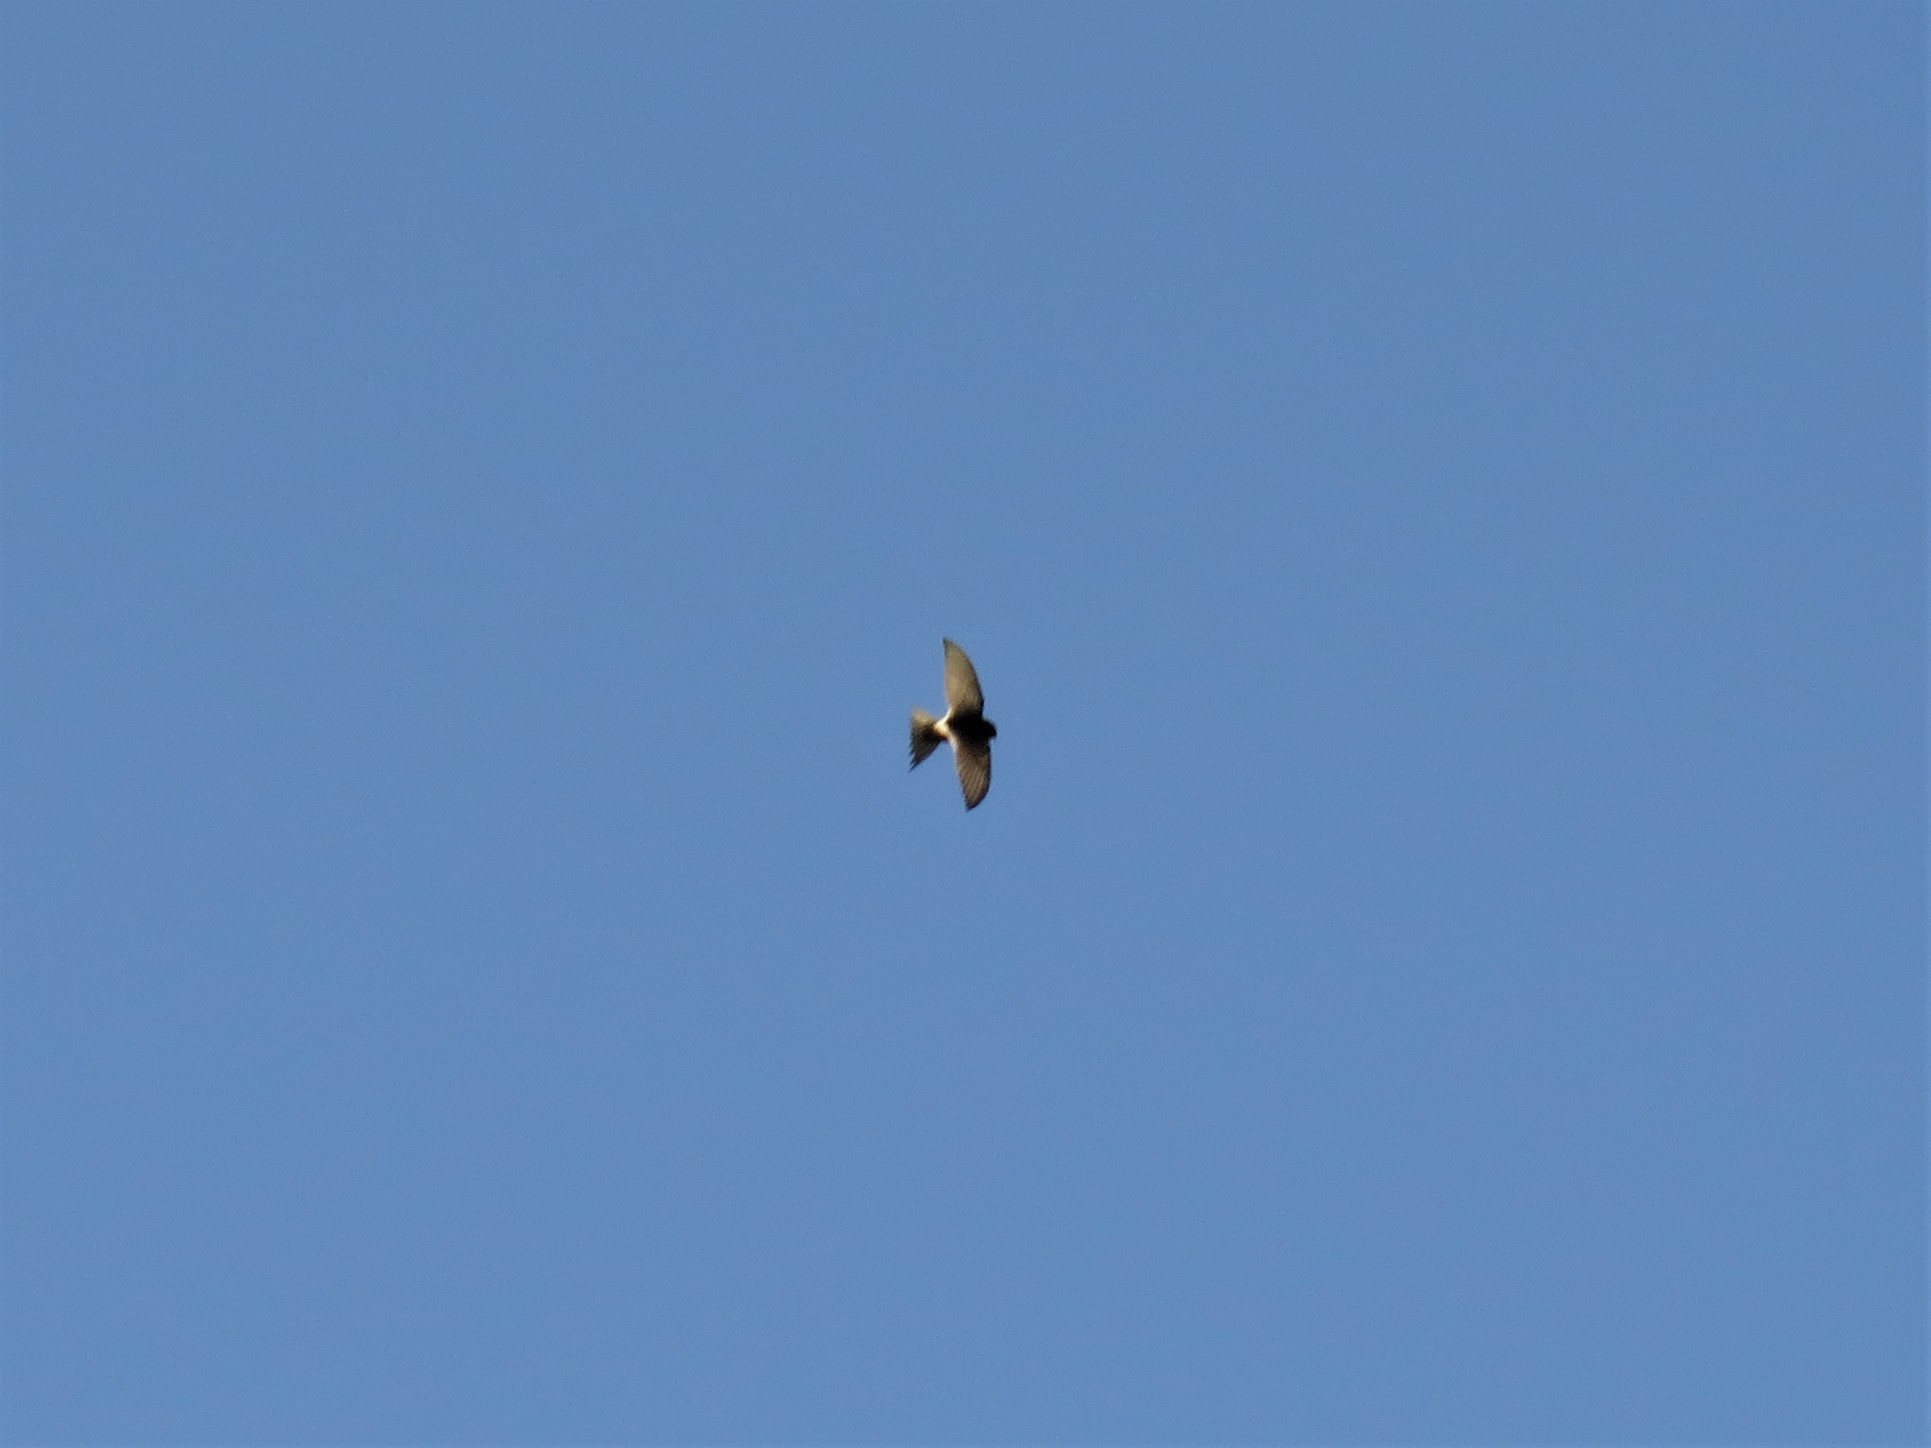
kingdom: Animalia
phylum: Chordata
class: Aves
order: Apodiformes
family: Apodidae
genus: Apus
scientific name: Apus caffer
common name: White-rumped swift
